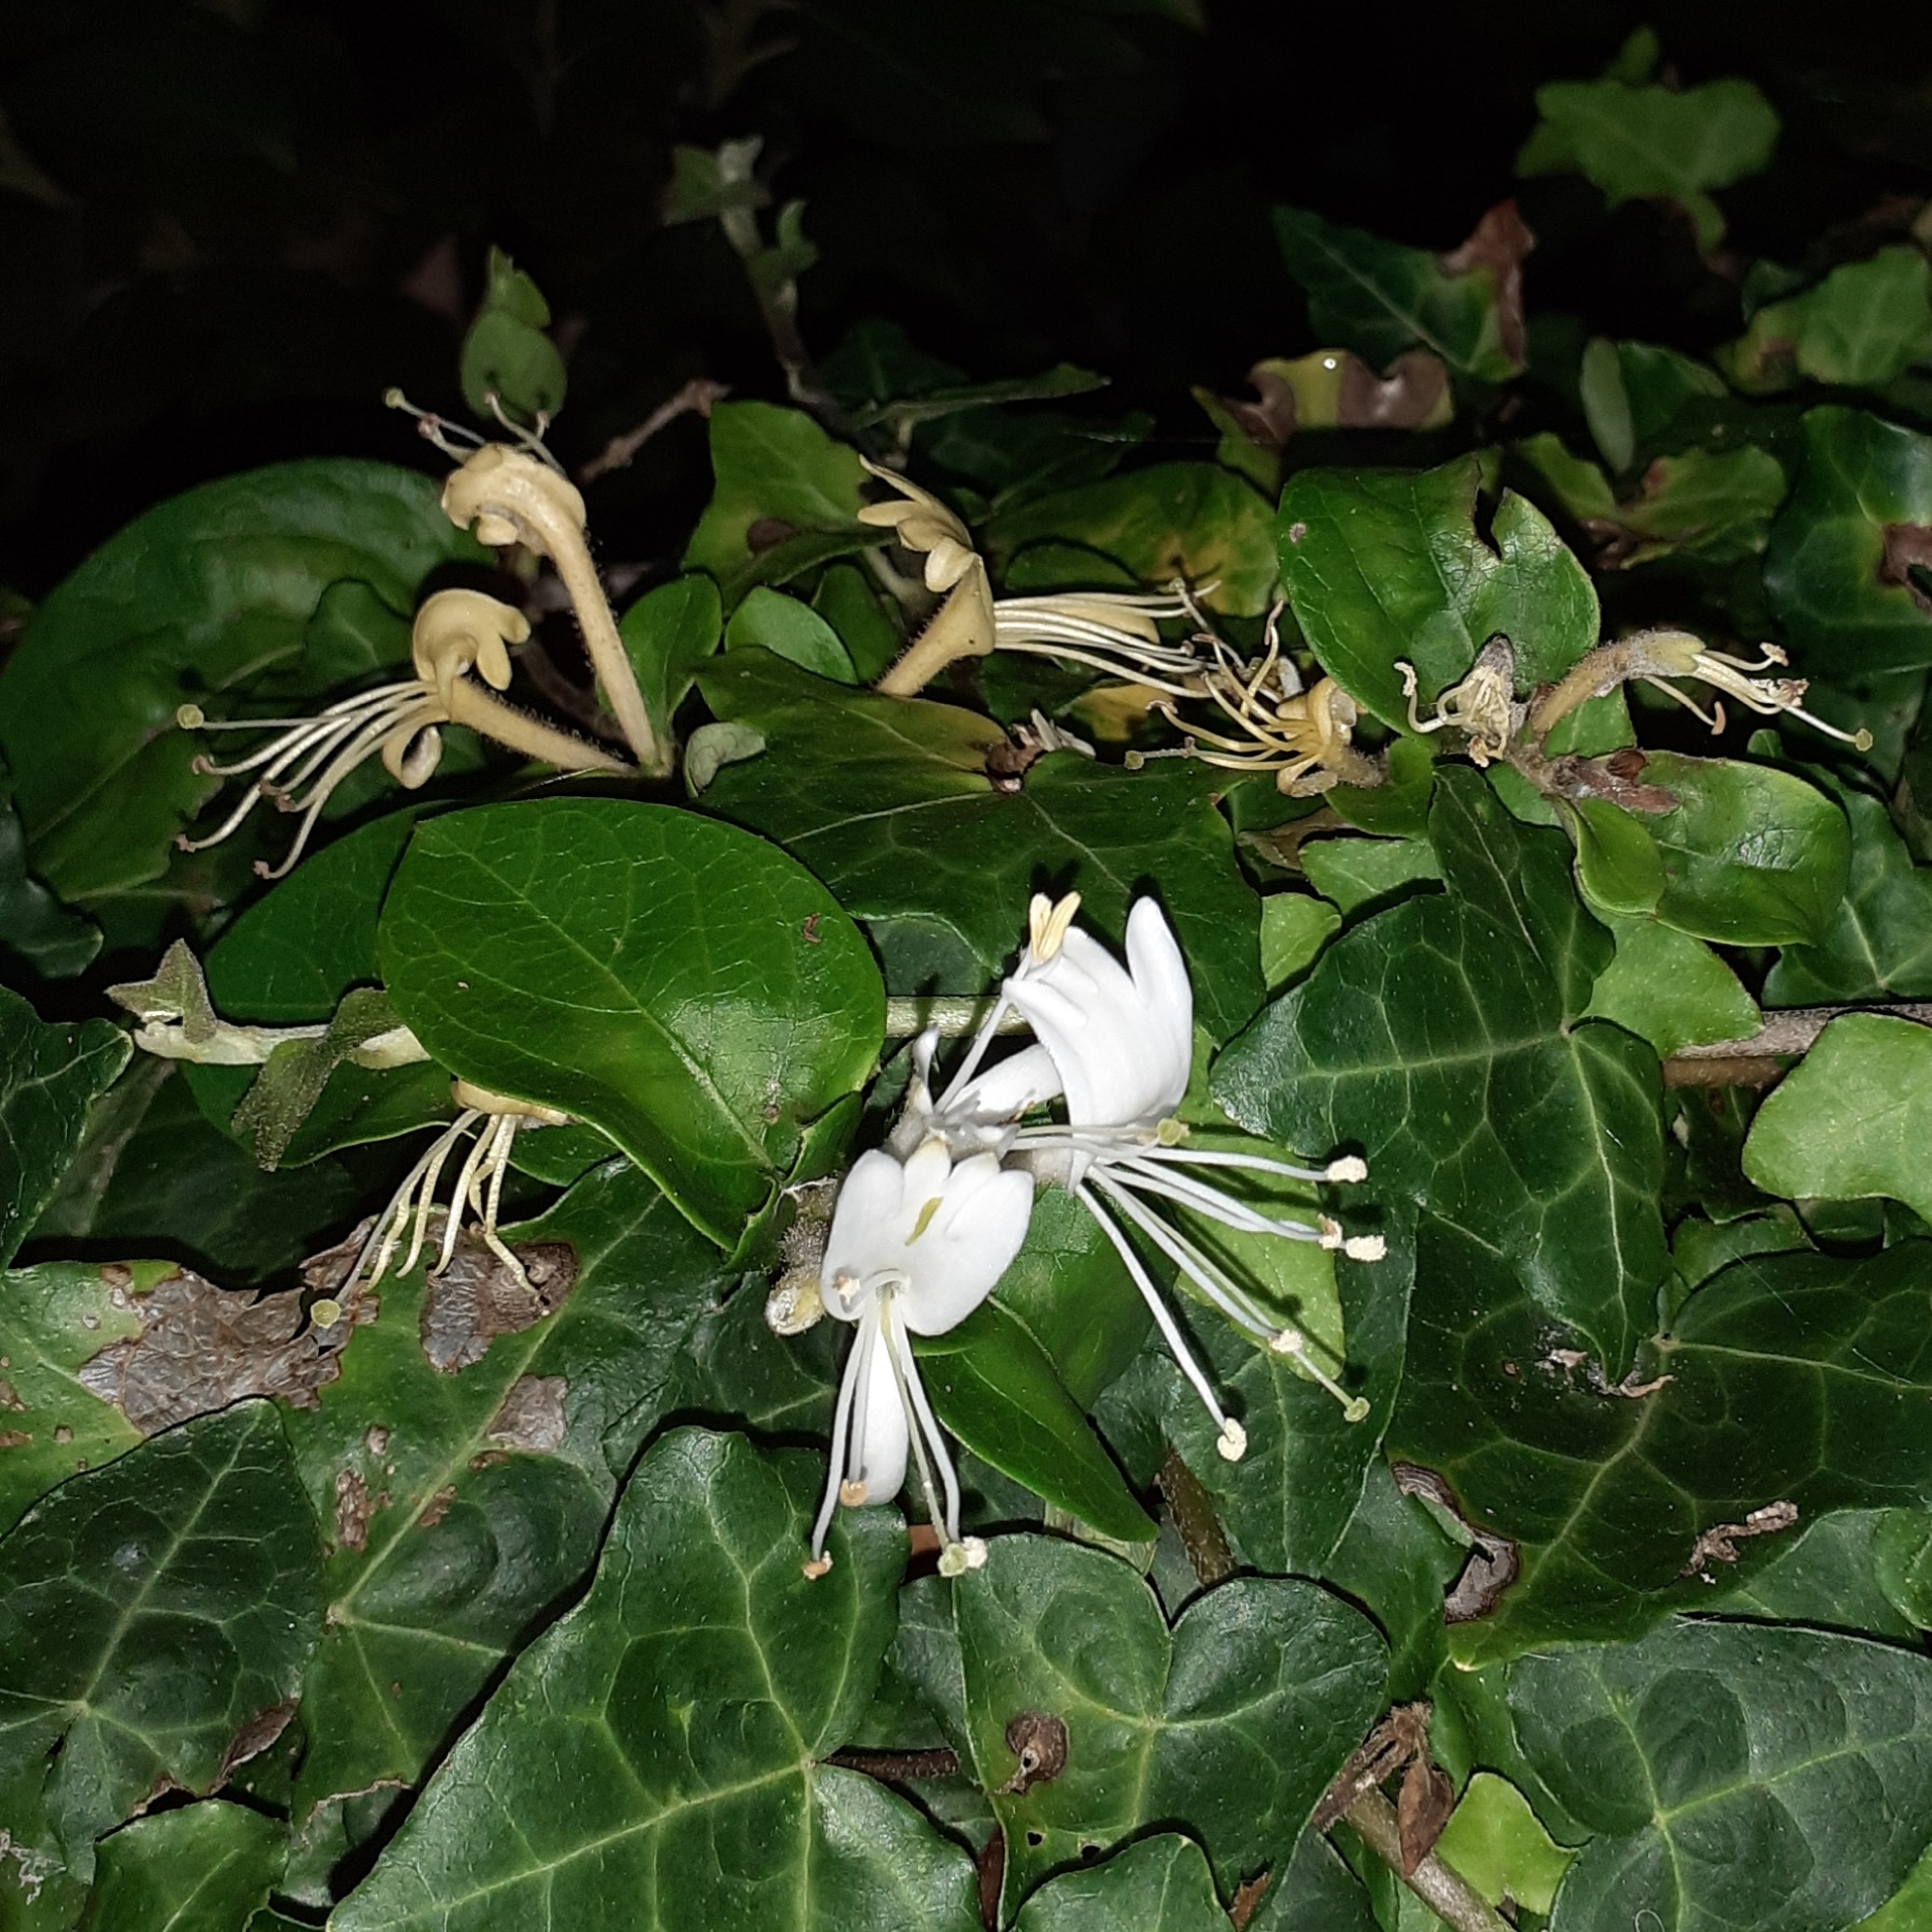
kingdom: Plantae
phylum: Tracheophyta
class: Magnoliopsida
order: Dipsacales
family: Caprifoliaceae
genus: Lonicera
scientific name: Lonicera japonica
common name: Japanese honeysuckle
